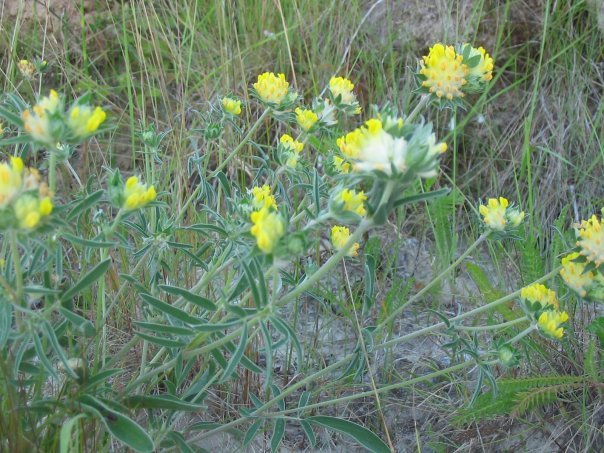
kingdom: Plantae
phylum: Tracheophyta
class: Magnoliopsida
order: Fabales
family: Fabaceae
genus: Anthyllis
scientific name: Anthyllis vulneraria
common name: Kidney vetch
